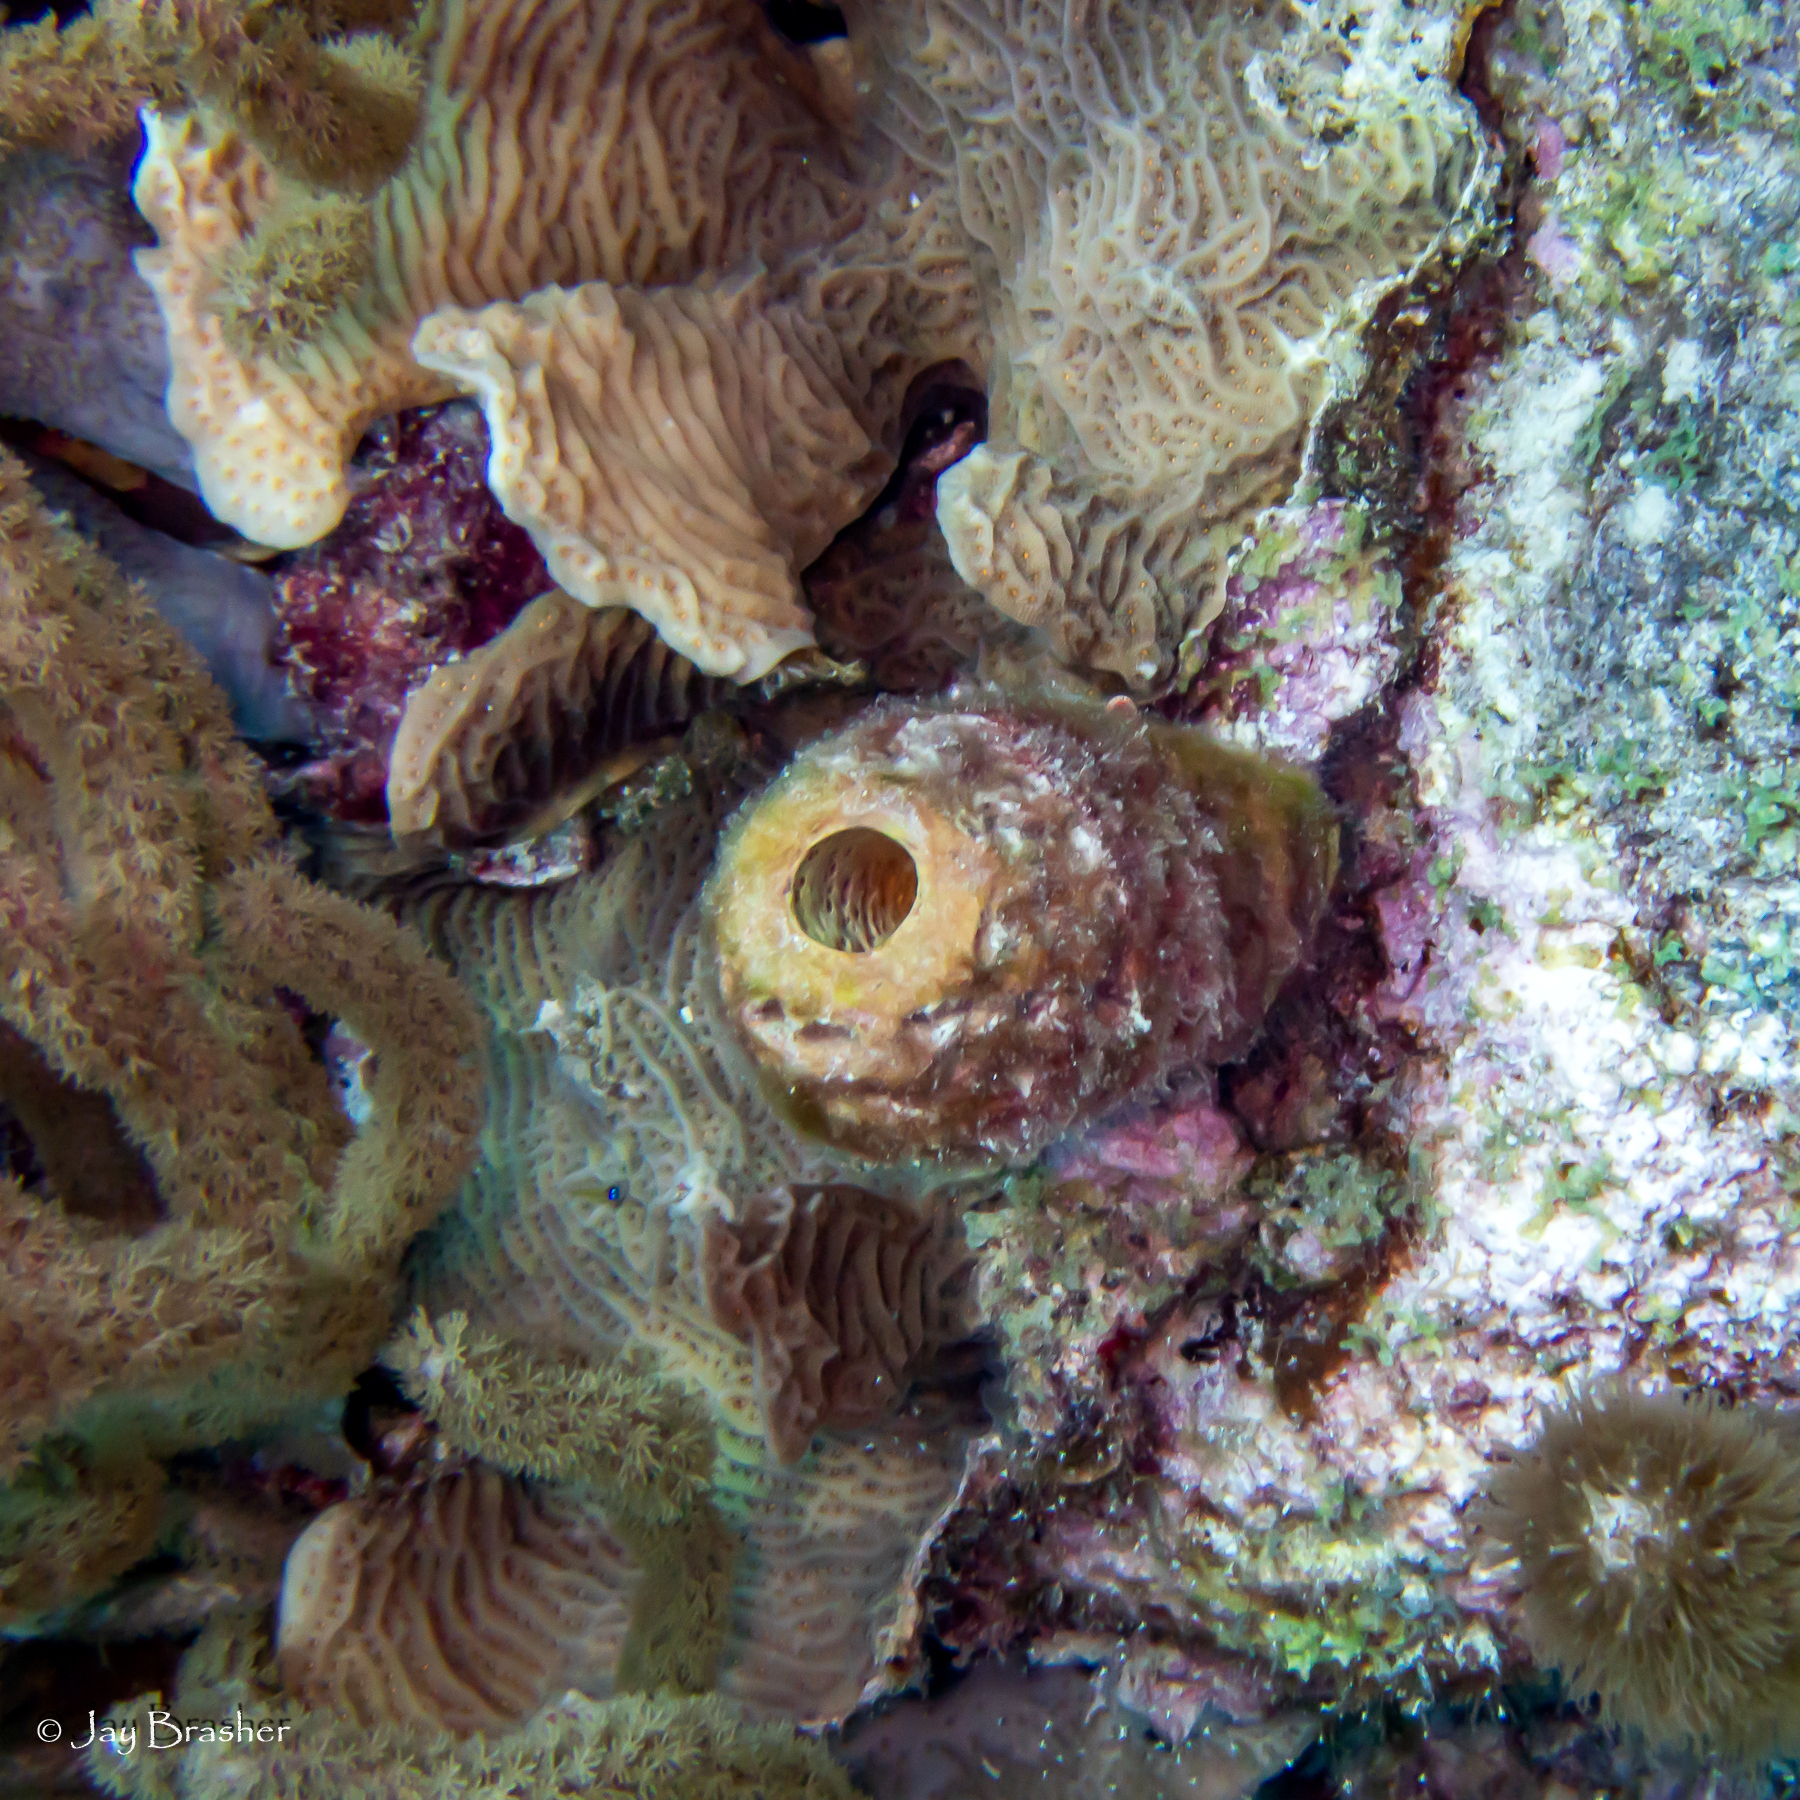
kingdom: Animalia
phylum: Cnidaria
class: Anthozoa
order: Scleractinia
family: Agariciidae
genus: Agaricia
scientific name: Agaricia agaricites
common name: Lettuce coral
